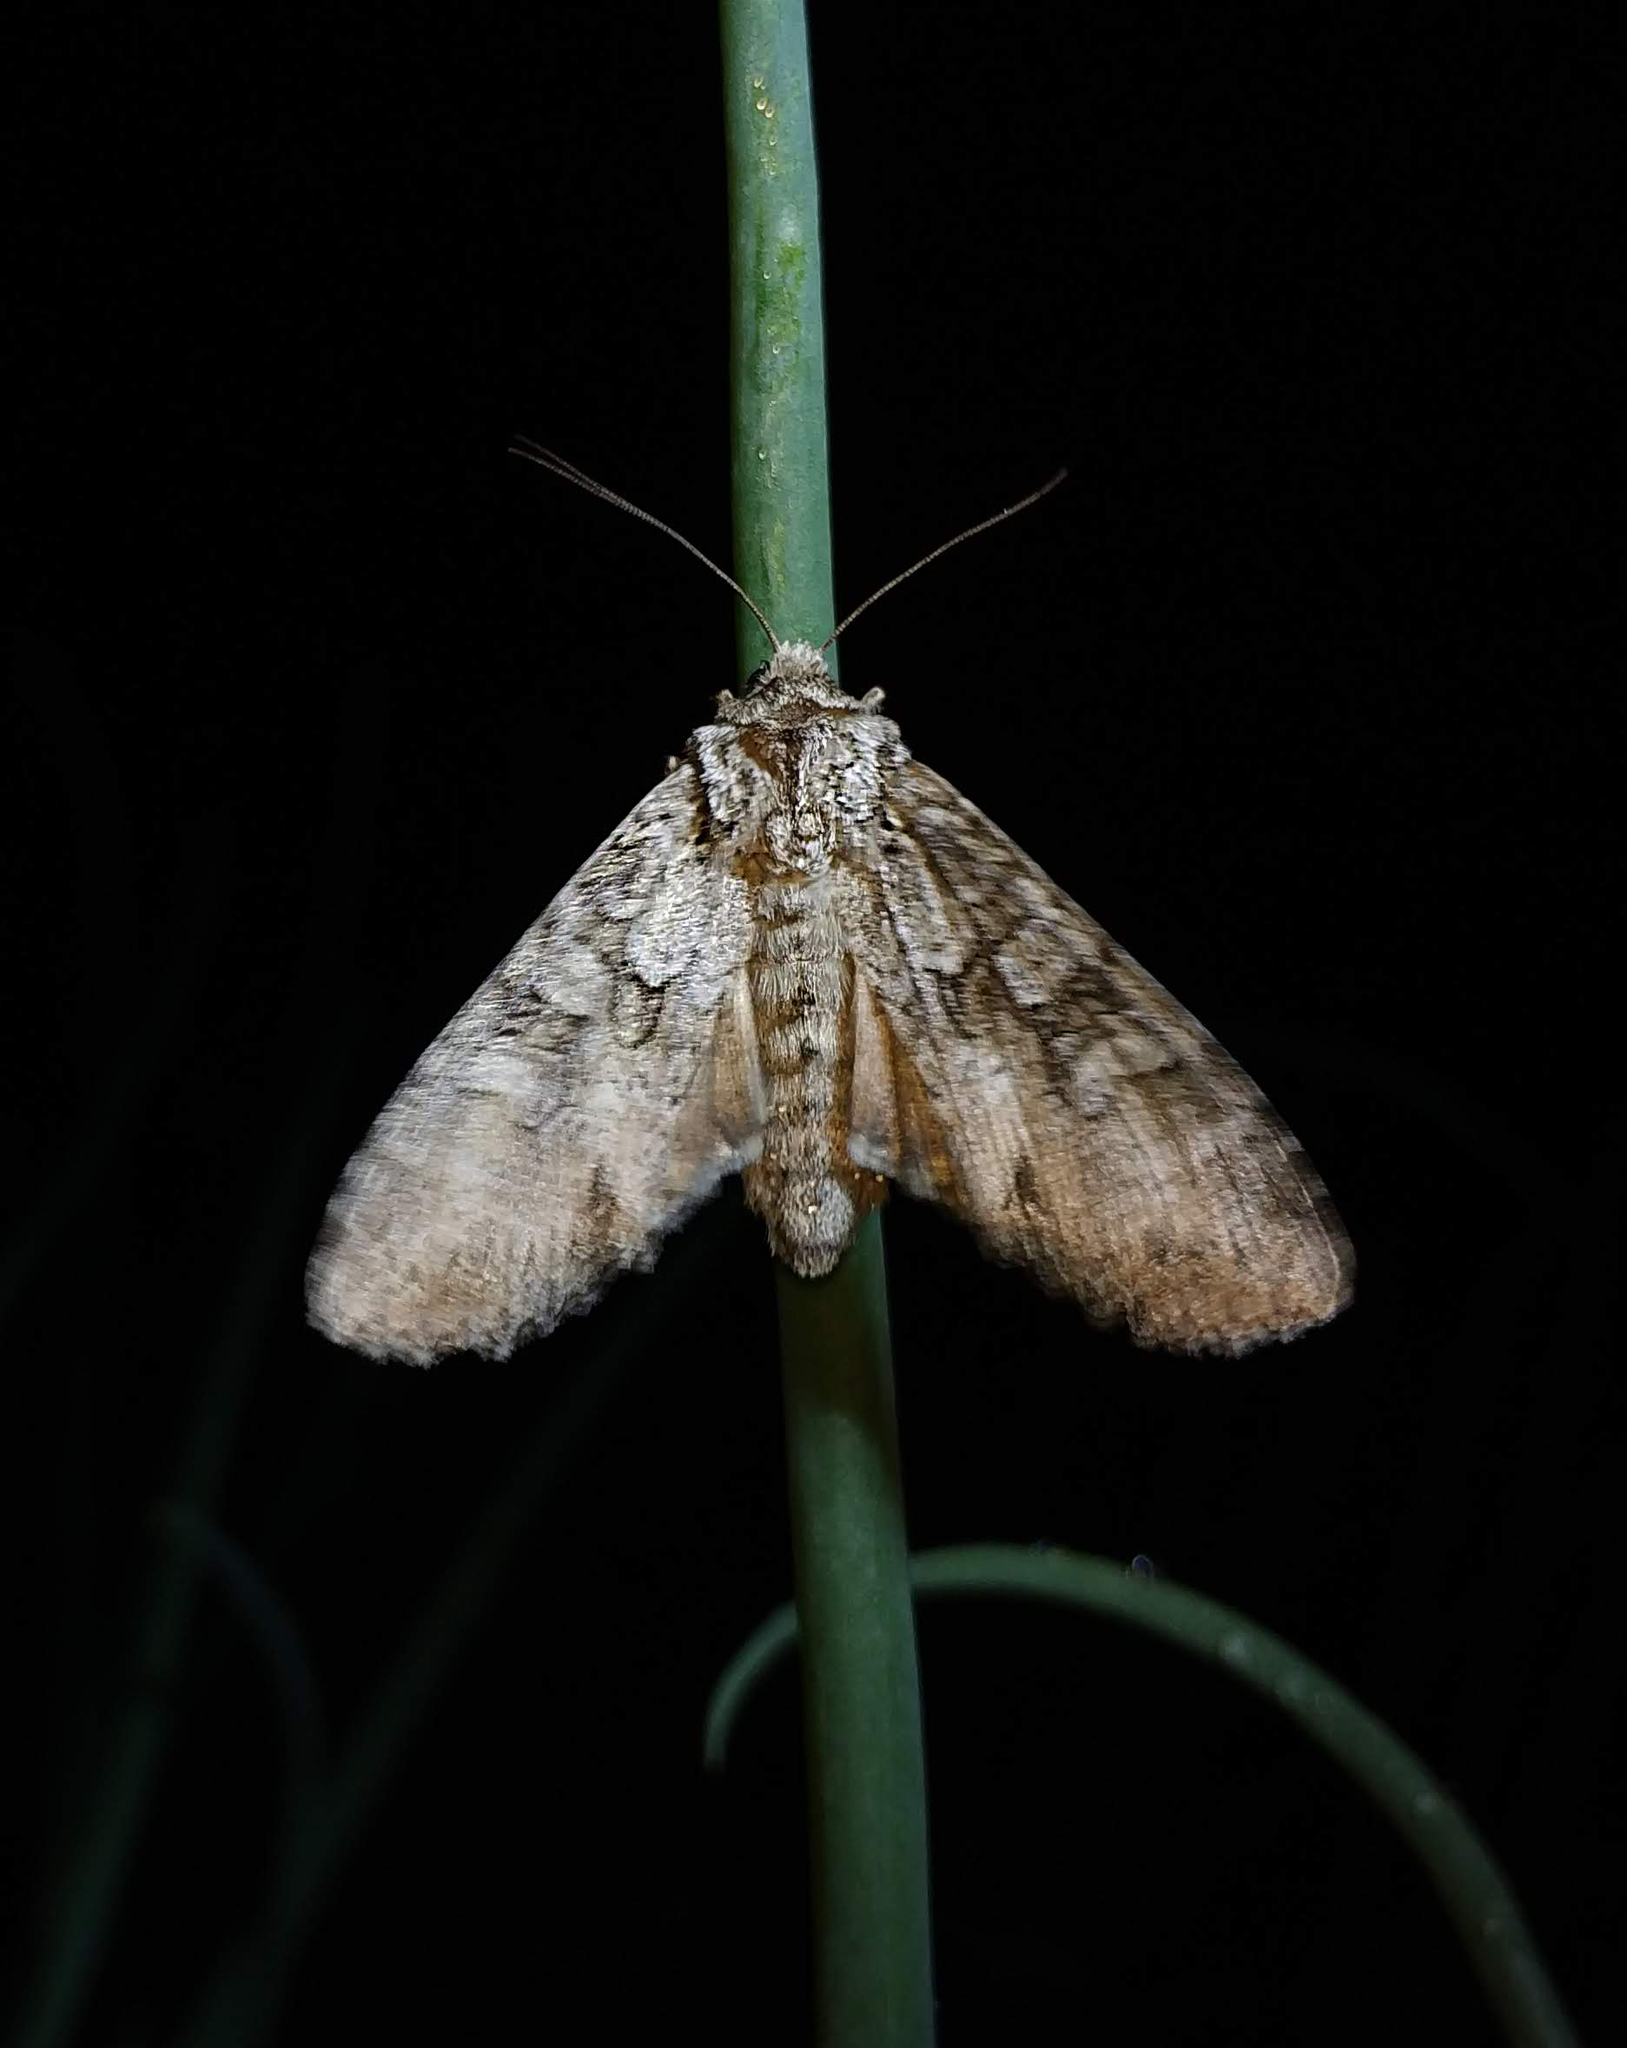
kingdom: Animalia
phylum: Arthropoda
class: Insecta
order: Lepidoptera
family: Noctuidae
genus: Polia
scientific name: Polia nebulosa
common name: Grey arches
